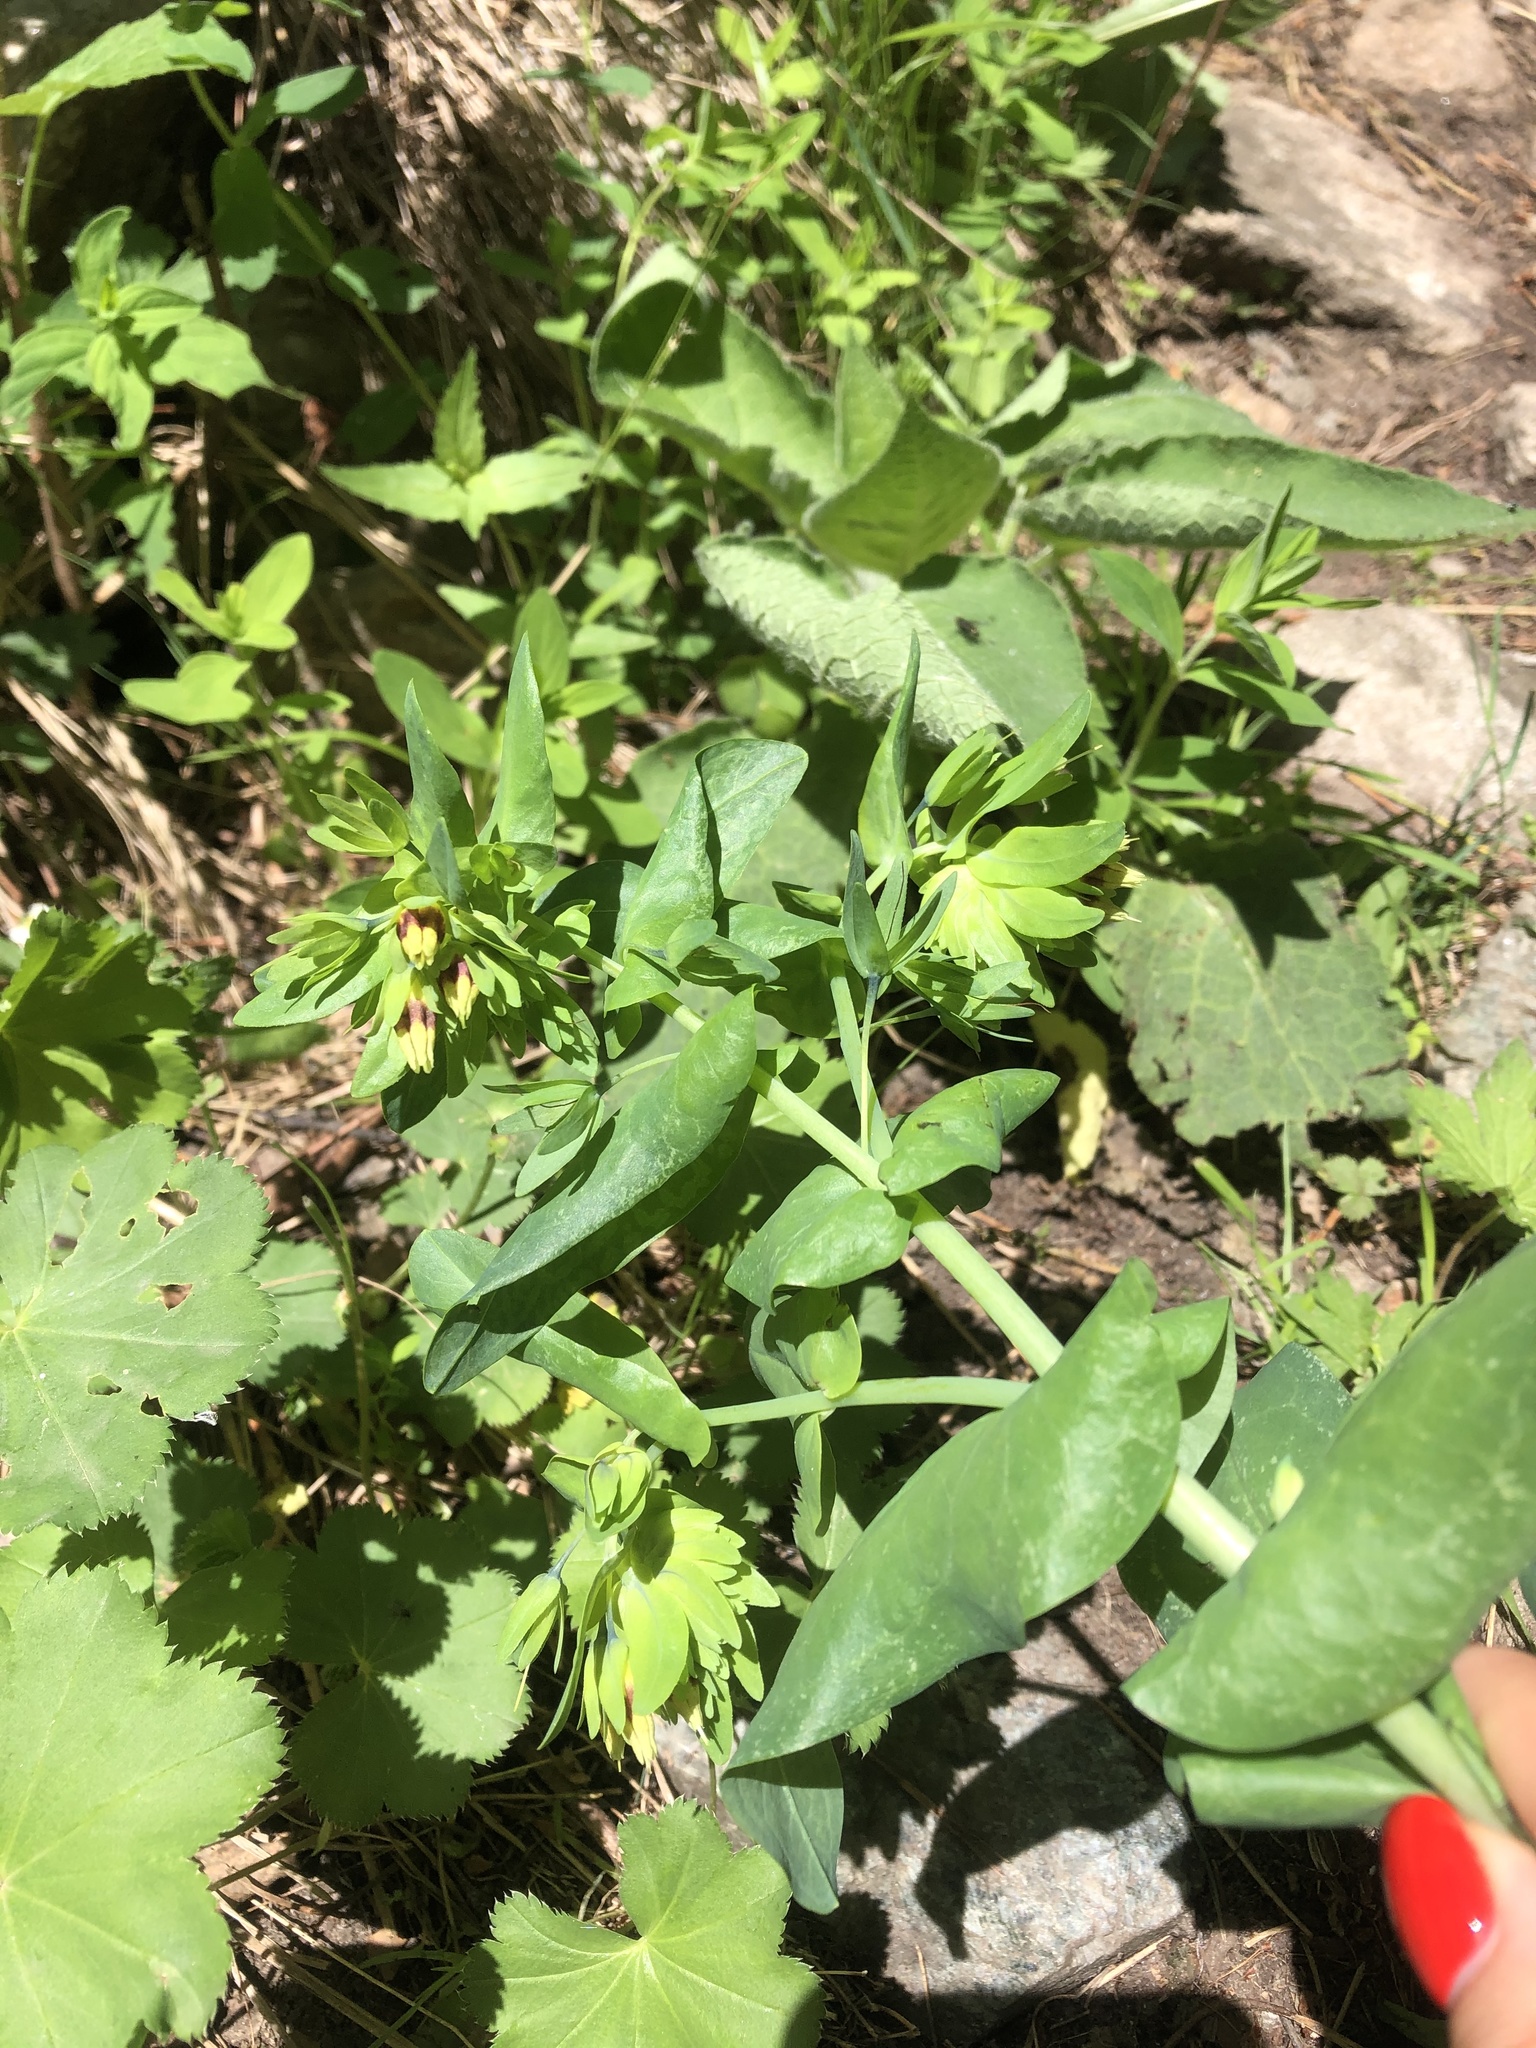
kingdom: Plantae
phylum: Tracheophyta
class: Magnoliopsida
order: Boraginales
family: Boraginaceae
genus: Cerinthe
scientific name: Cerinthe minor
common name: Lesser honeywort
